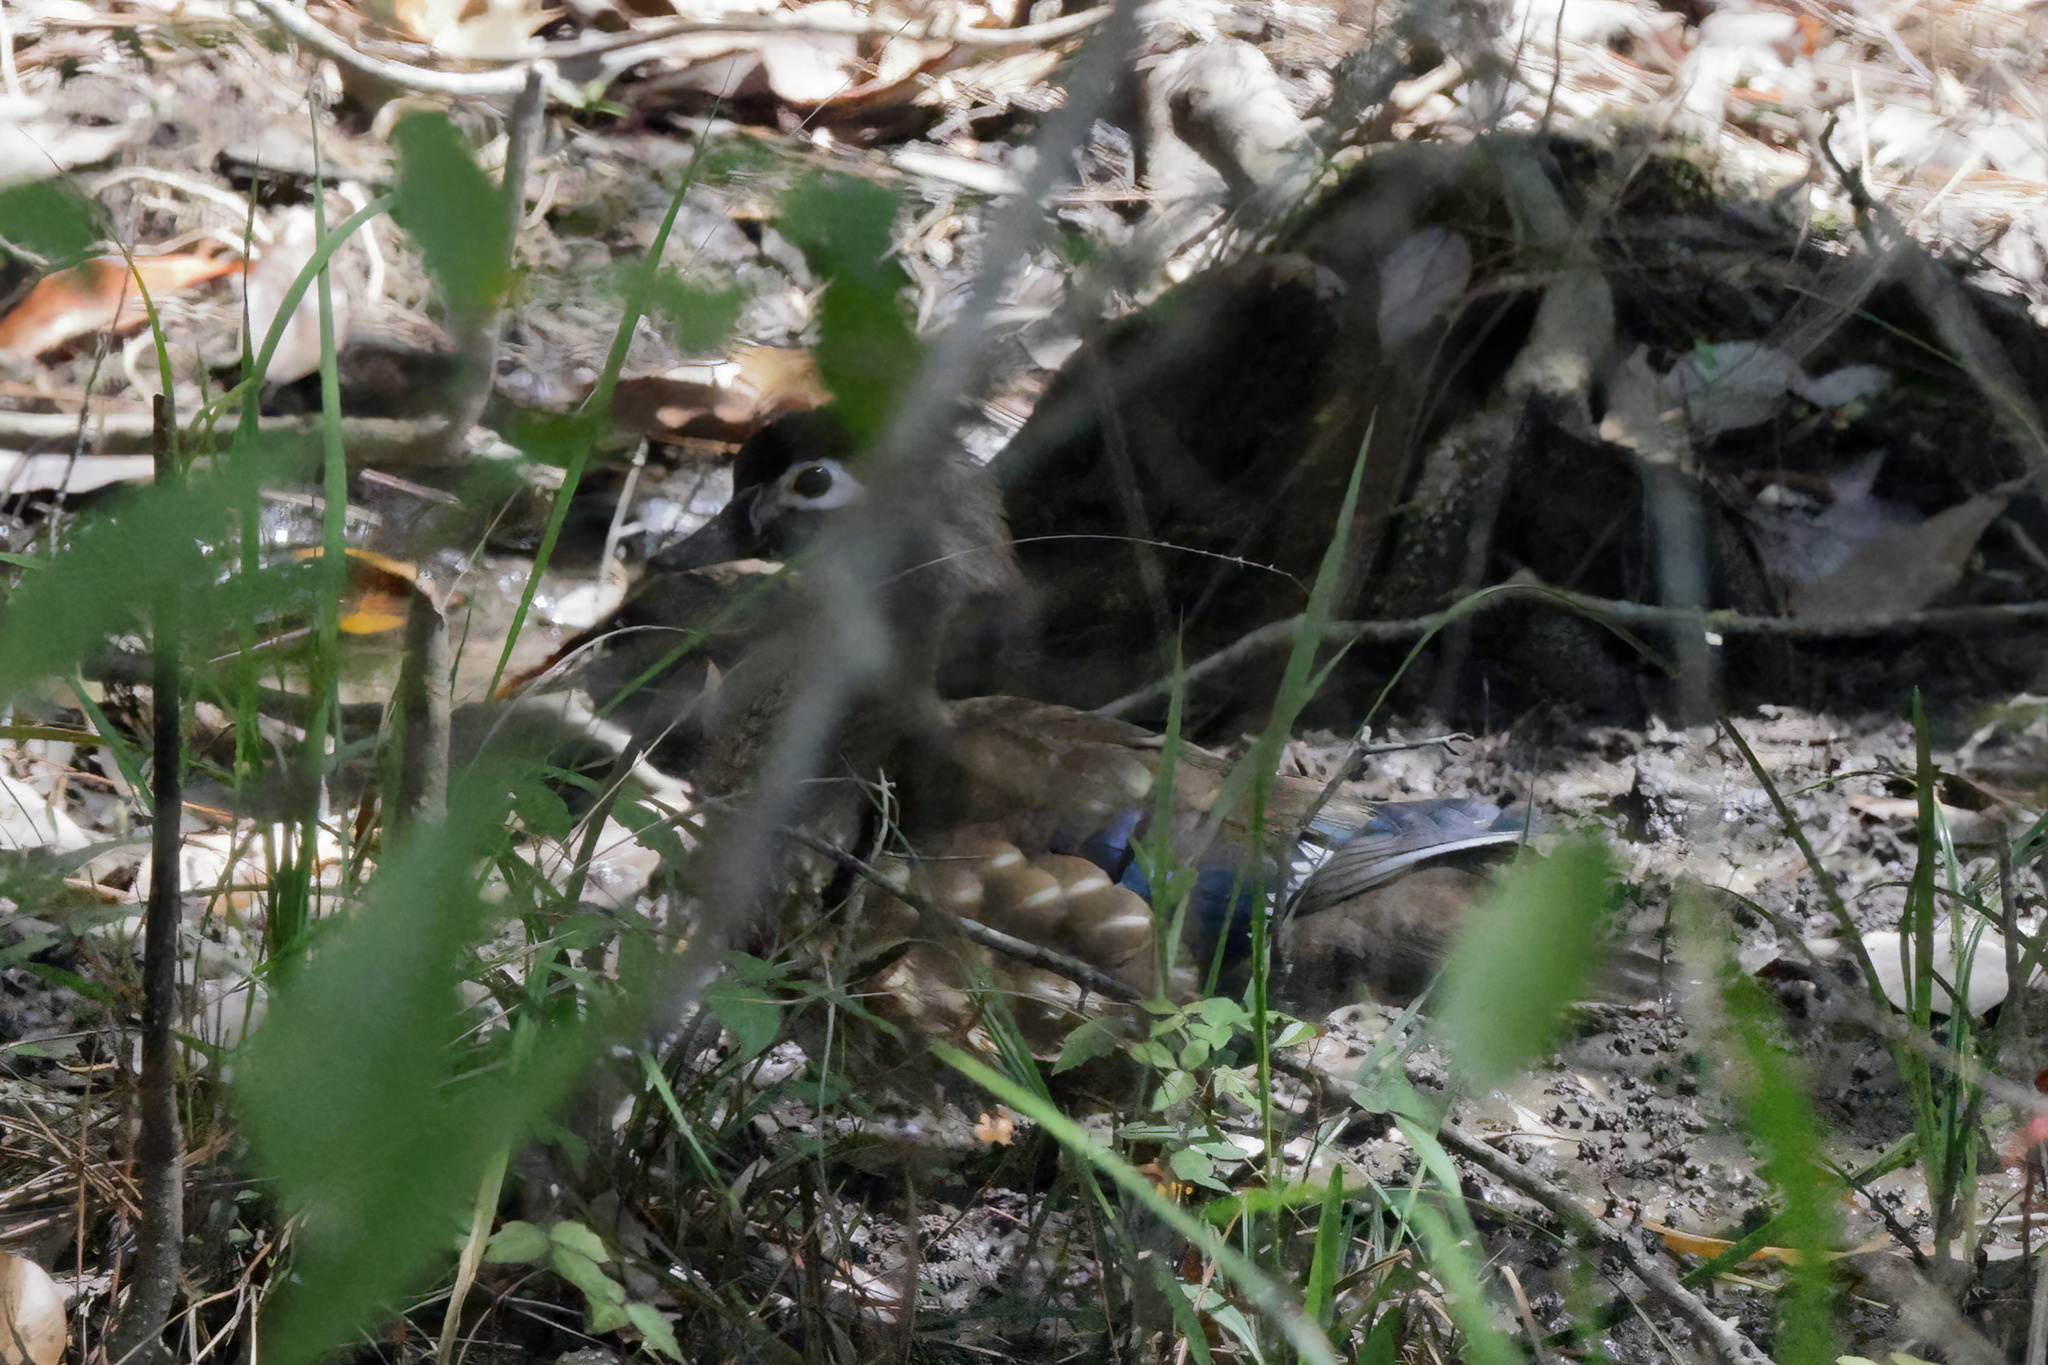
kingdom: Animalia
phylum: Chordata
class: Aves
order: Anseriformes
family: Anatidae
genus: Aix
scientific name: Aix sponsa
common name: Wood duck
